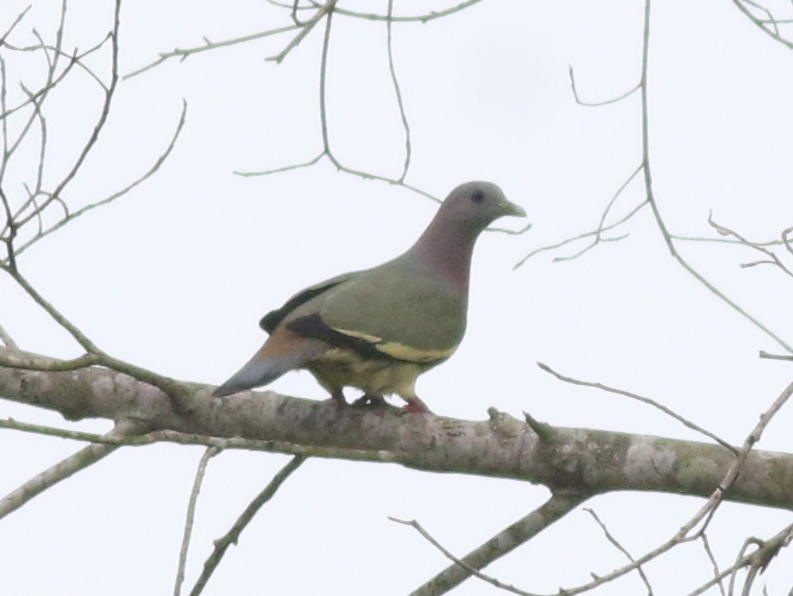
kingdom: Animalia
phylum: Chordata
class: Aves
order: Columbiformes
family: Columbidae
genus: Treron
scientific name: Treron vernans
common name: Pink-necked green pigeon
